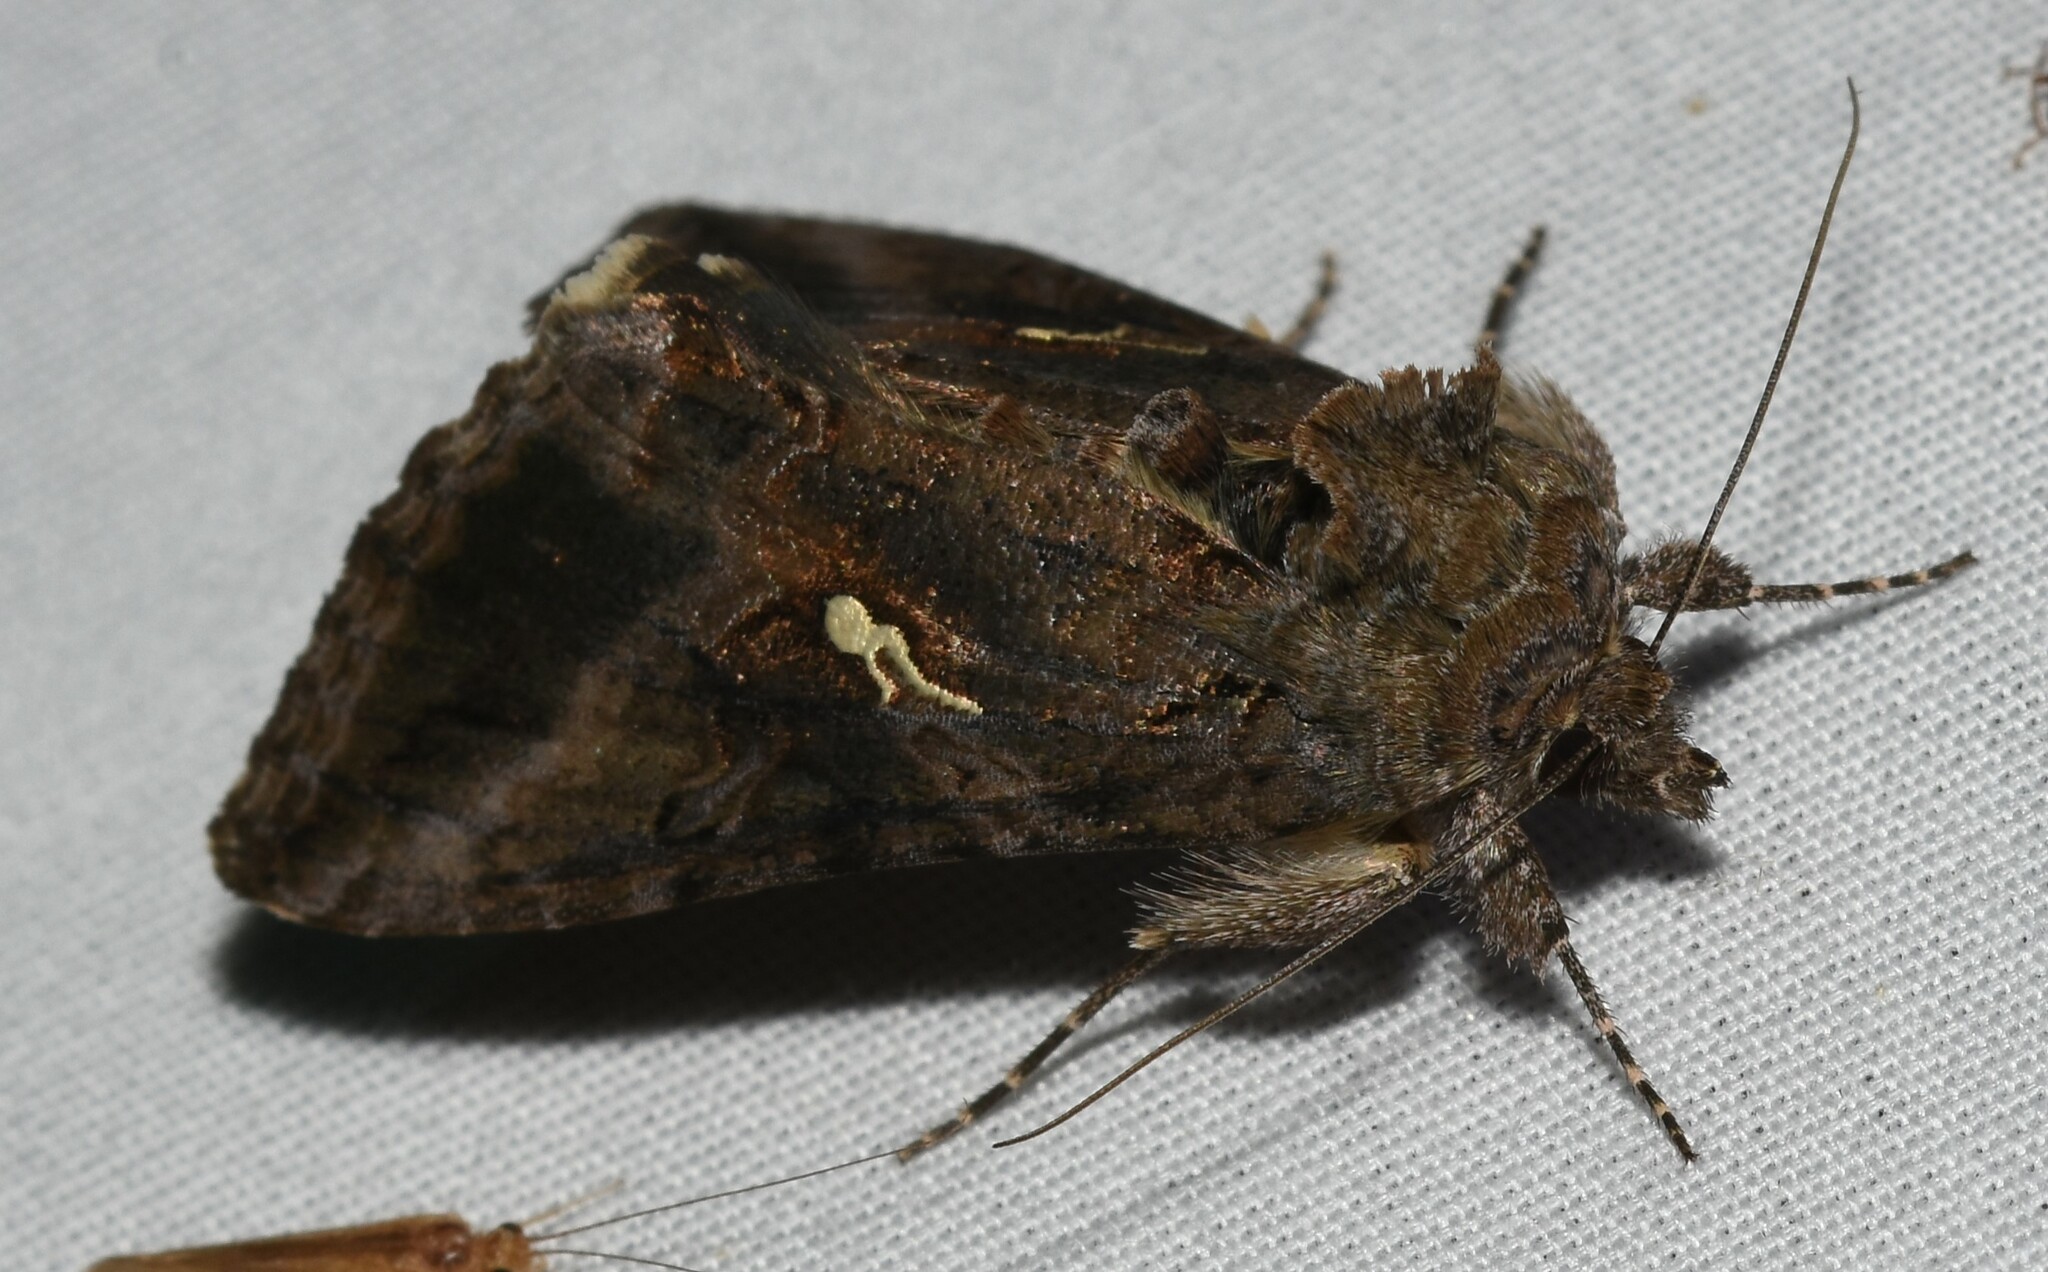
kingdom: Animalia
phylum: Arthropoda
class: Insecta
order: Lepidoptera
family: Noctuidae
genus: Rachiplusia
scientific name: Rachiplusia ou
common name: Gray looper moth
